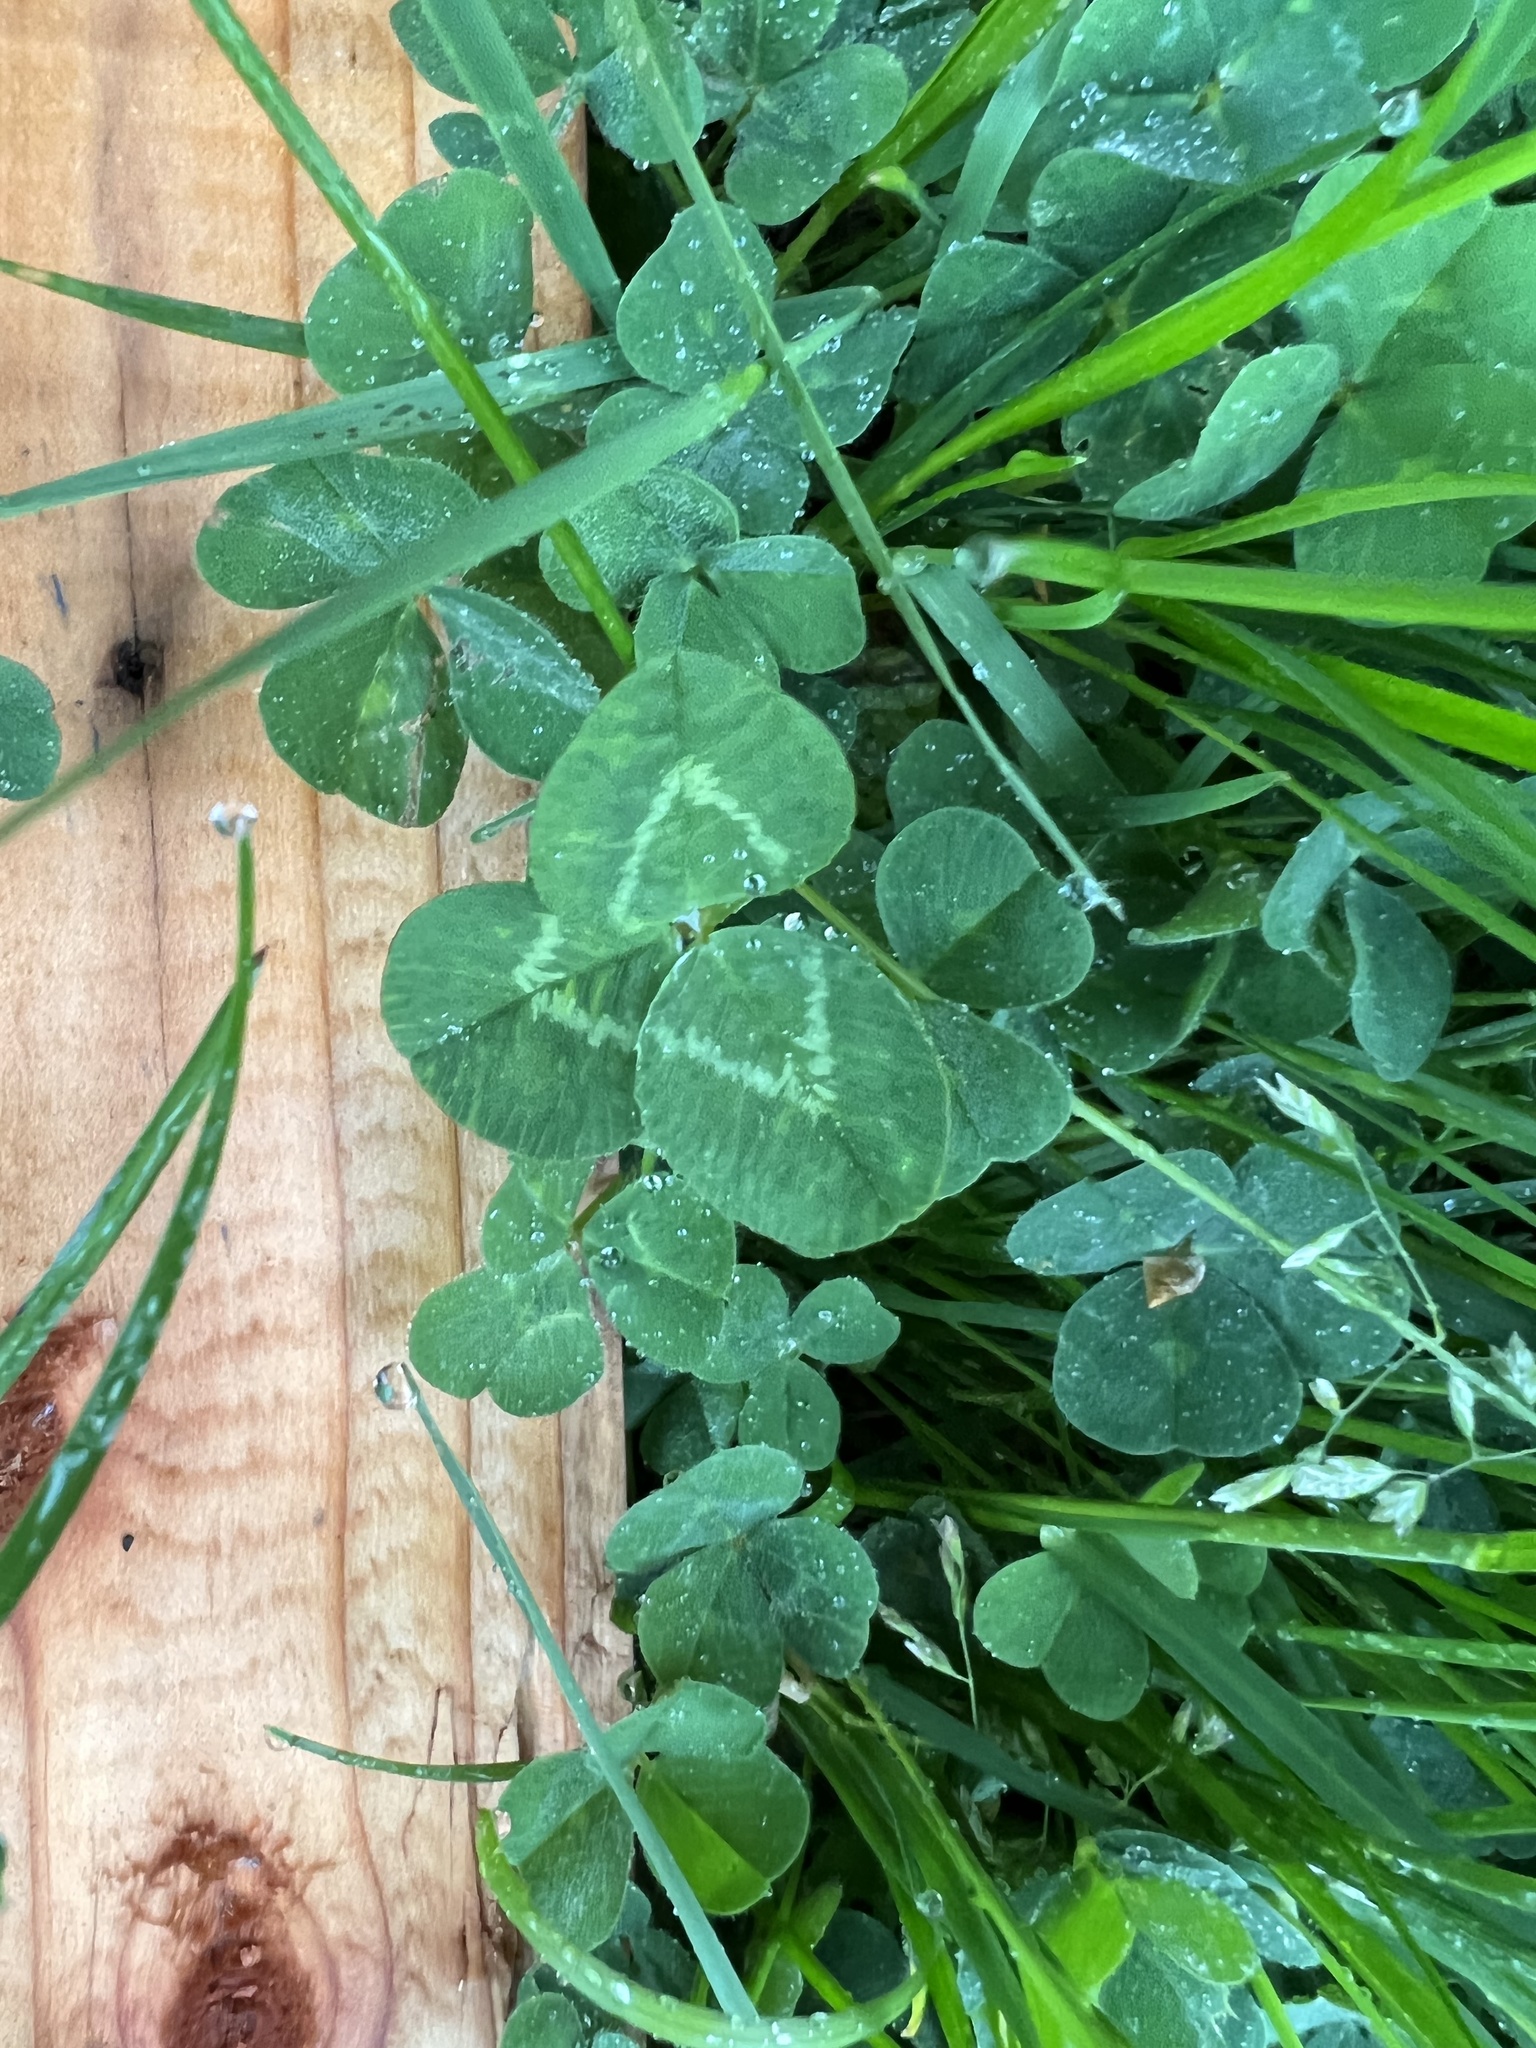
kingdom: Plantae
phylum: Tracheophyta
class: Magnoliopsida
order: Fabales
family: Fabaceae
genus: Trifolium
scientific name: Trifolium repens
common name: White clover
